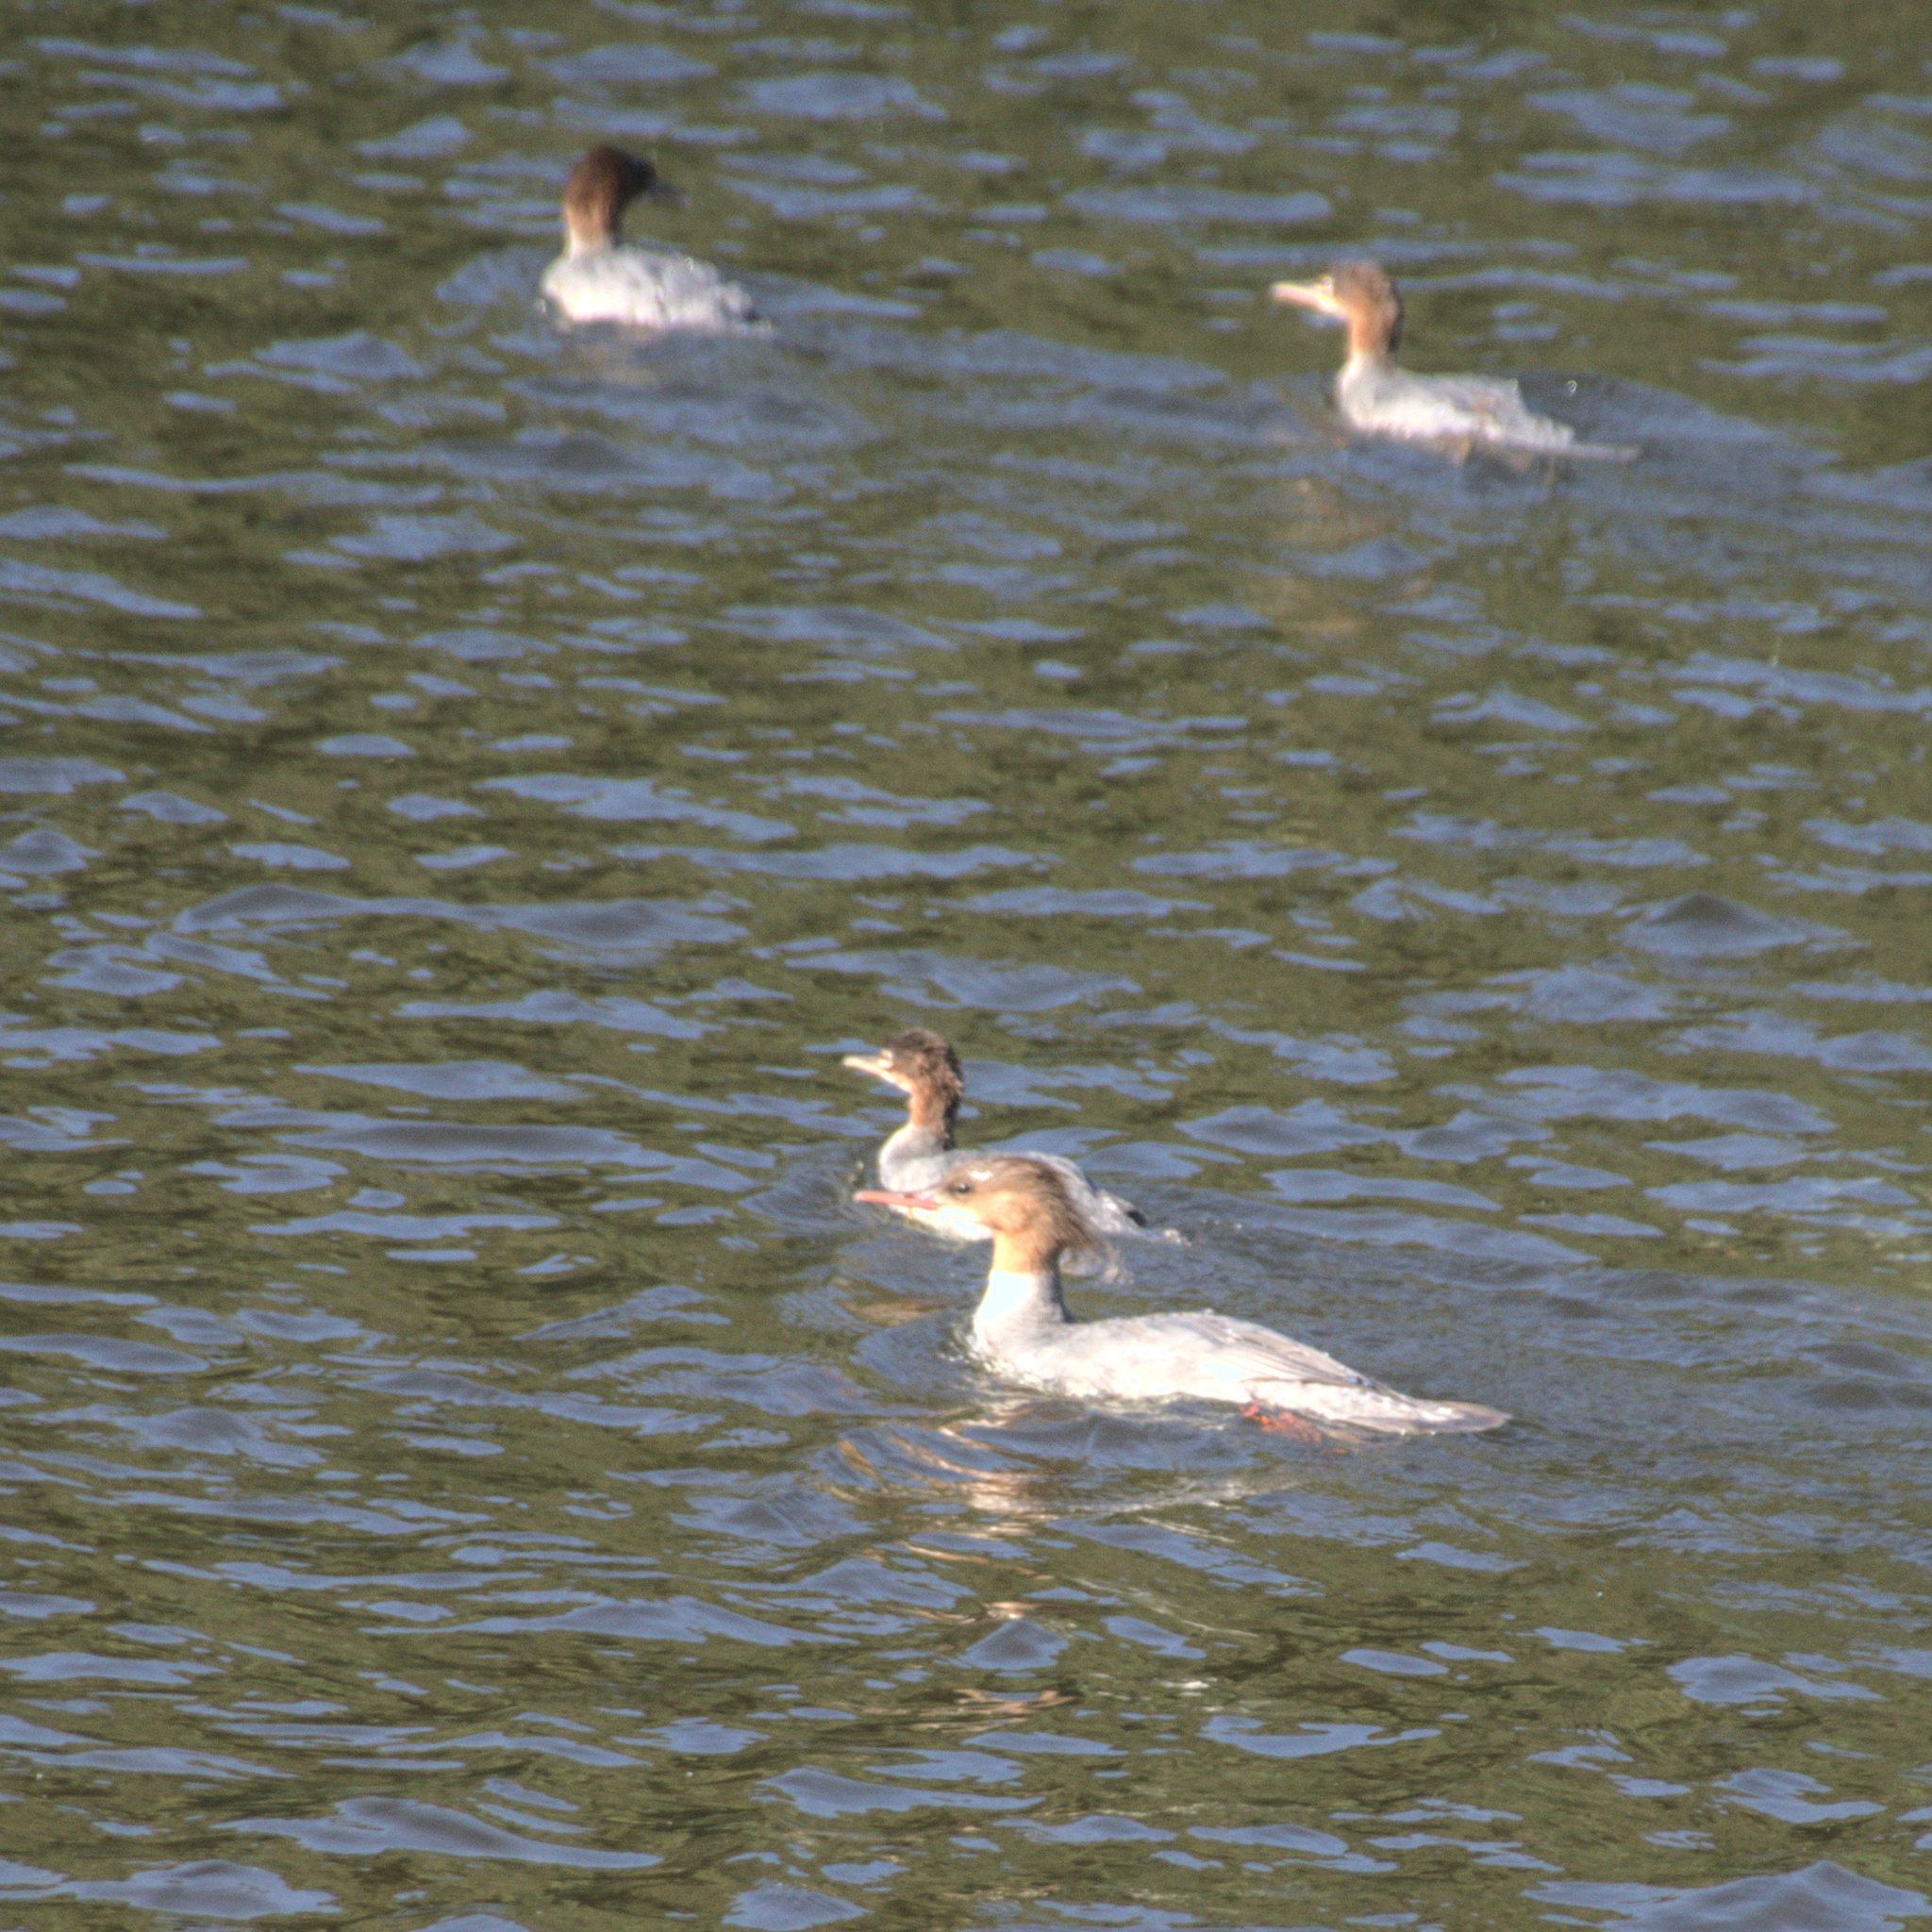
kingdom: Animalia
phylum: Chordata
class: Aves
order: Anseriformes
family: Anatidae
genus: Mergus
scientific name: Mergus merganser
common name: Common merganser
